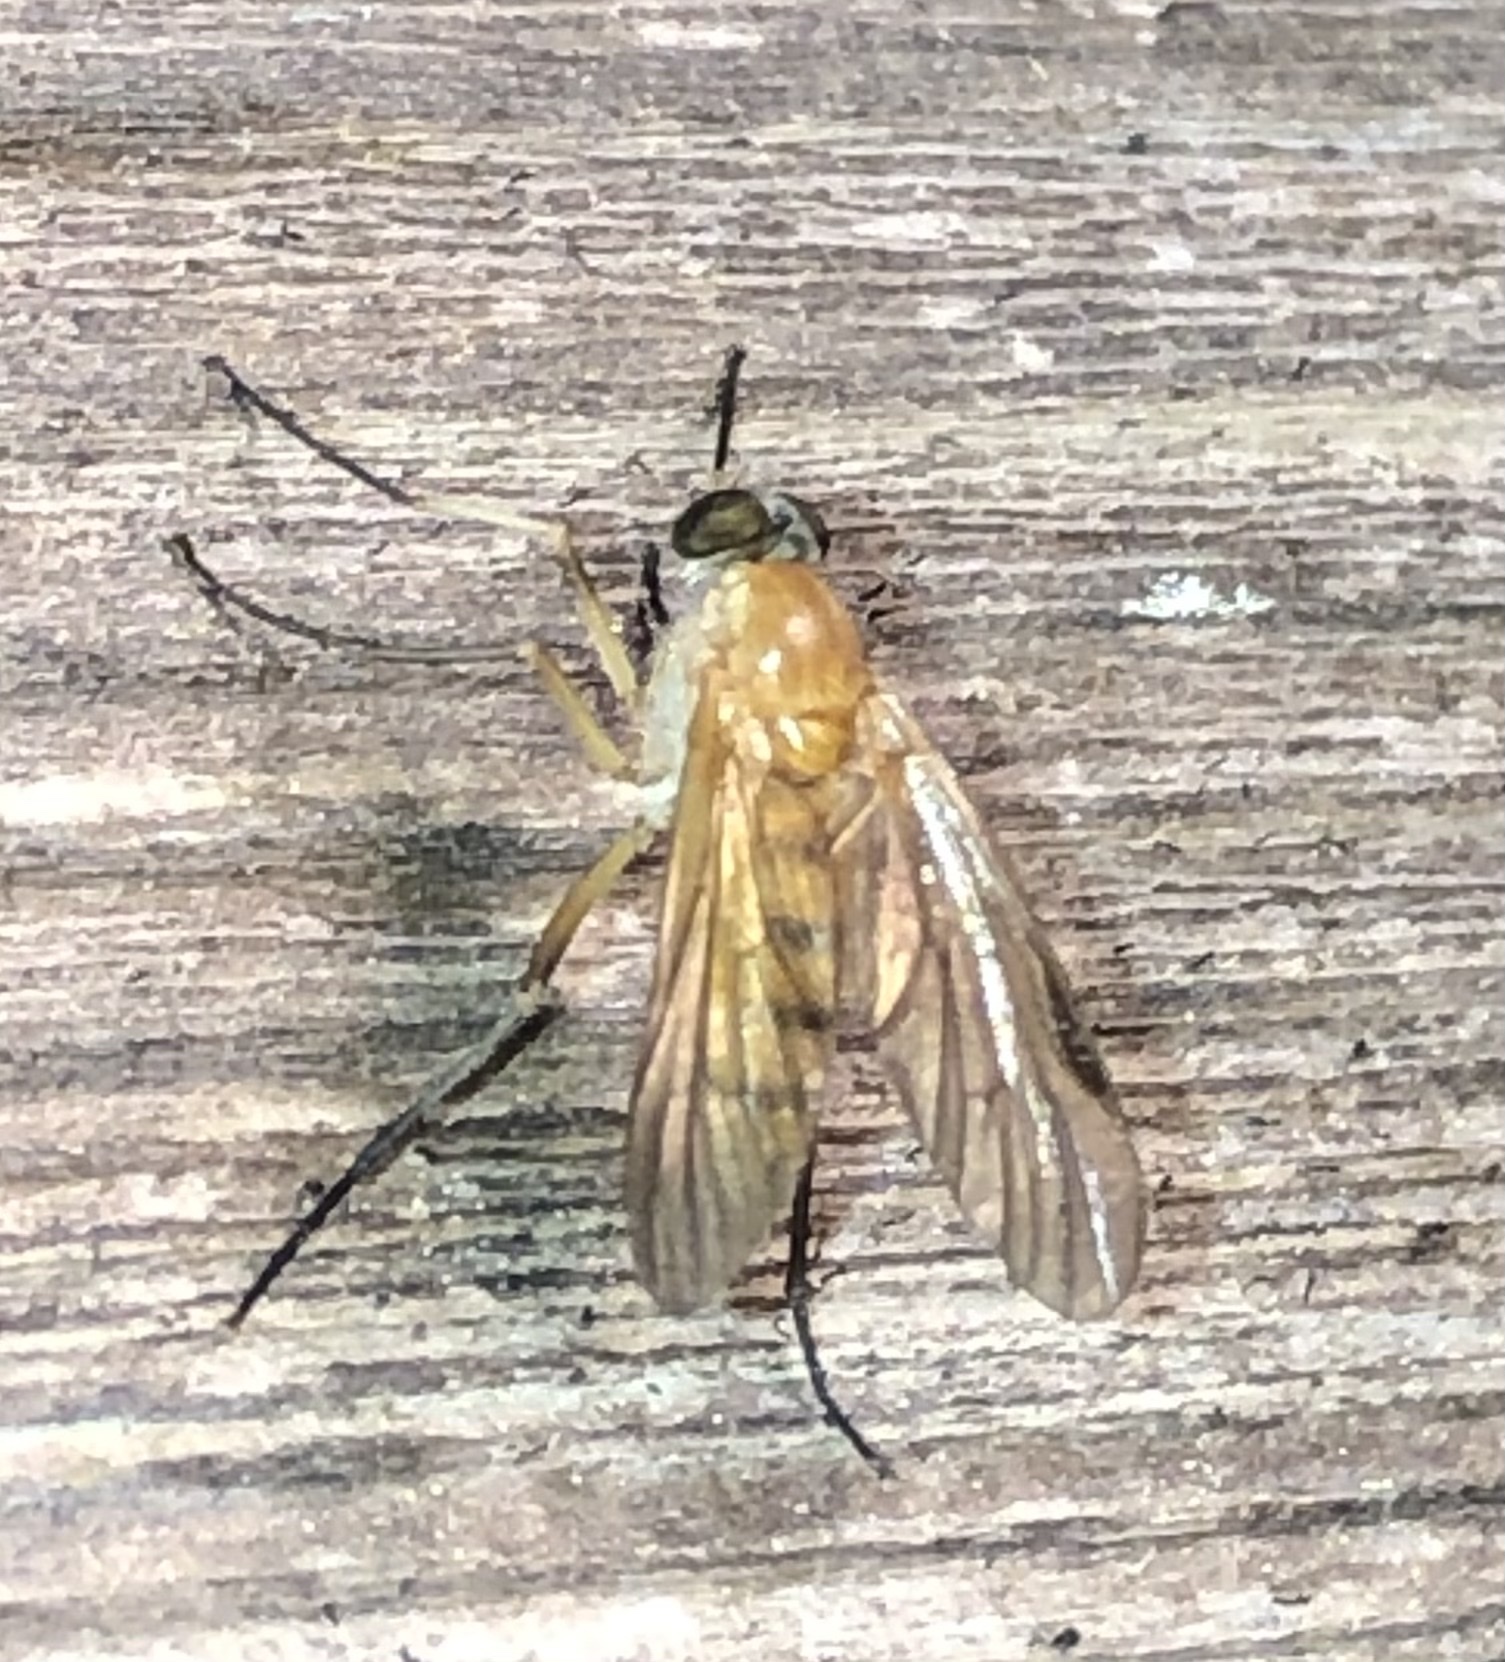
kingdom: Animalia
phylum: Arthropoda
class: Insecta
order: Diptera
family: Rhagionidae
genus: Rhagio
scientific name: Rhagio hirta
